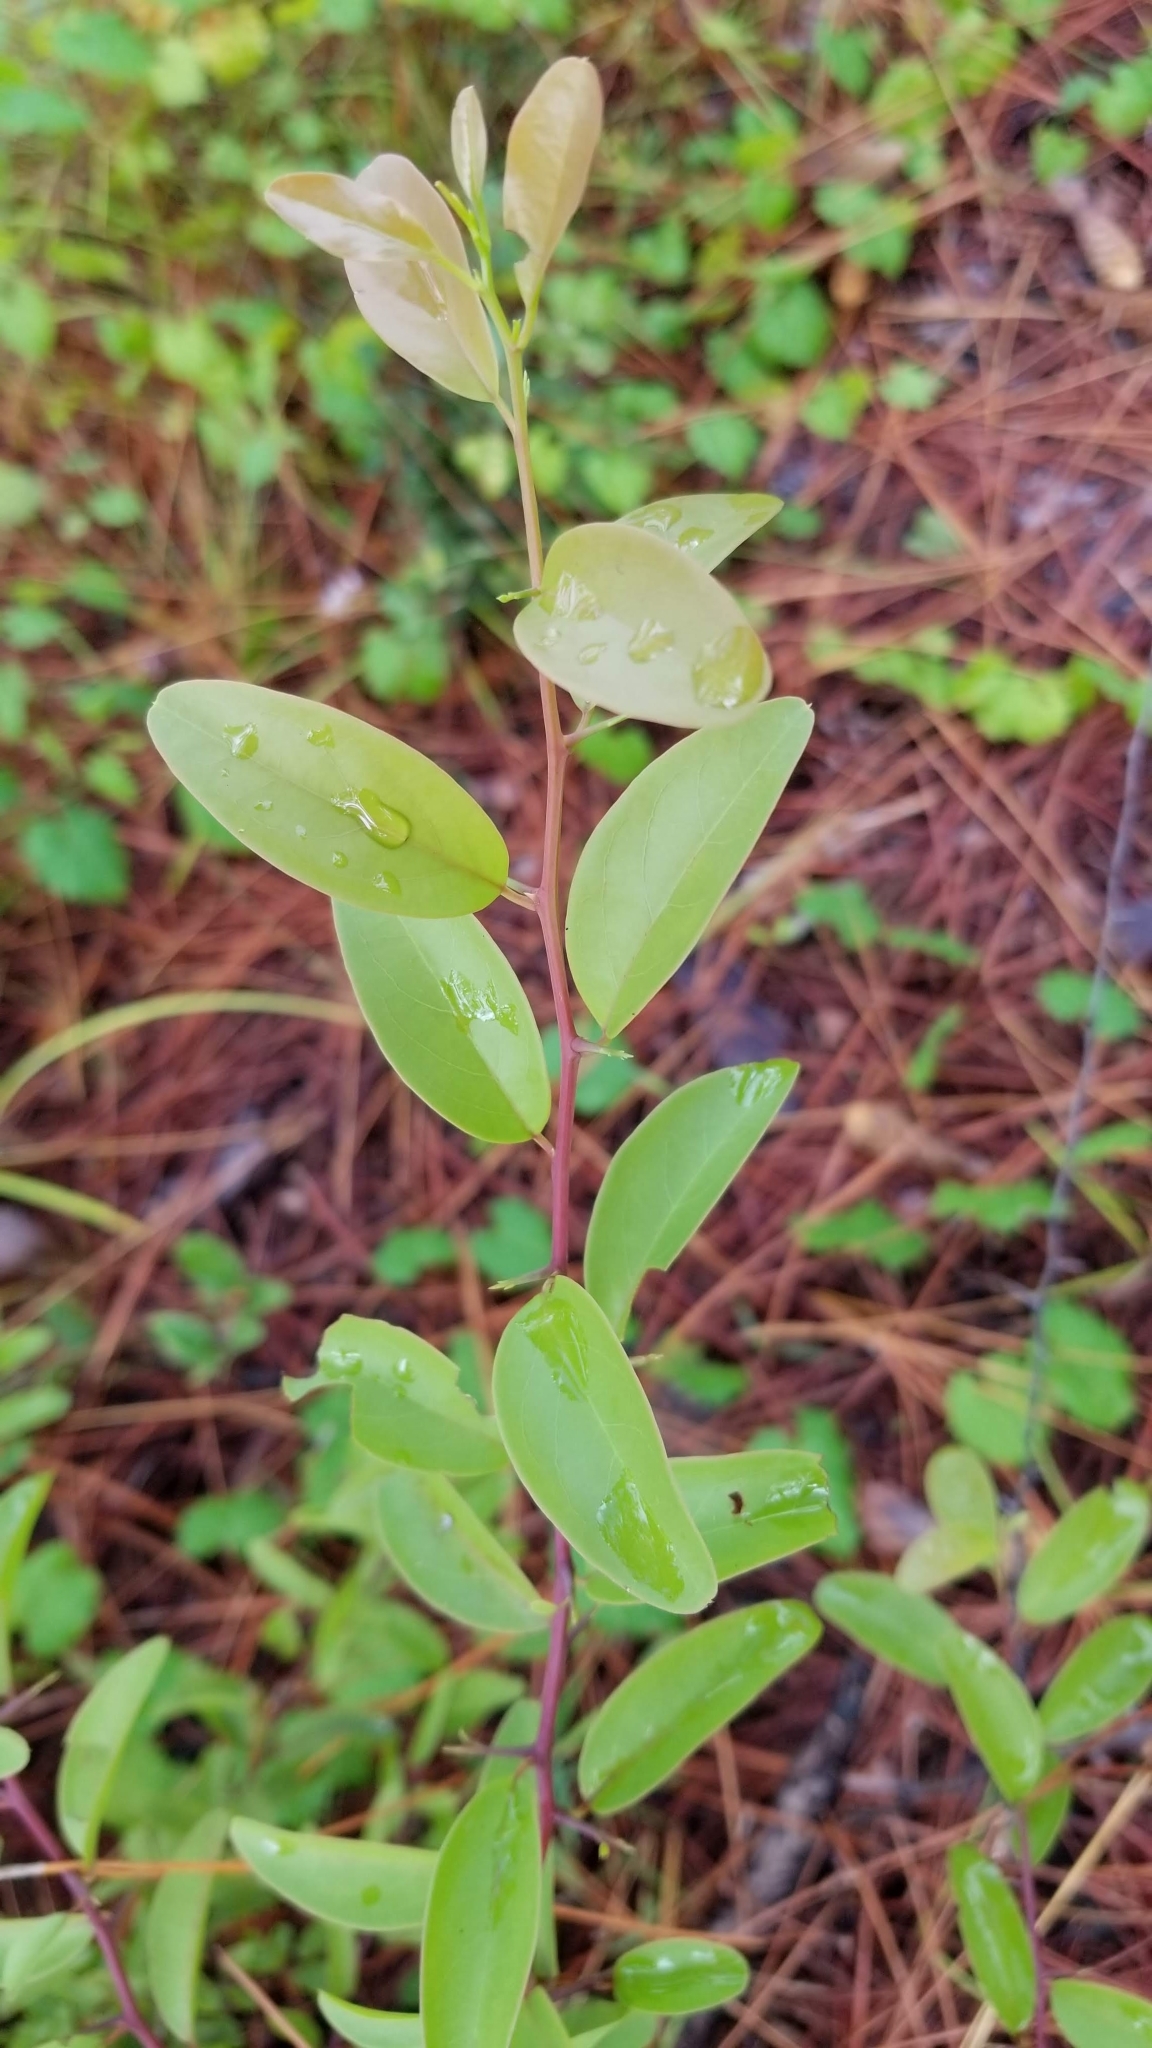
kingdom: Plantae
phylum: Tracheophyta
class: Magnoliopsida
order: Santalales
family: Ximeniaceae
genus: Ximenia
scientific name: Ximenia americana
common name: Tallowwood
